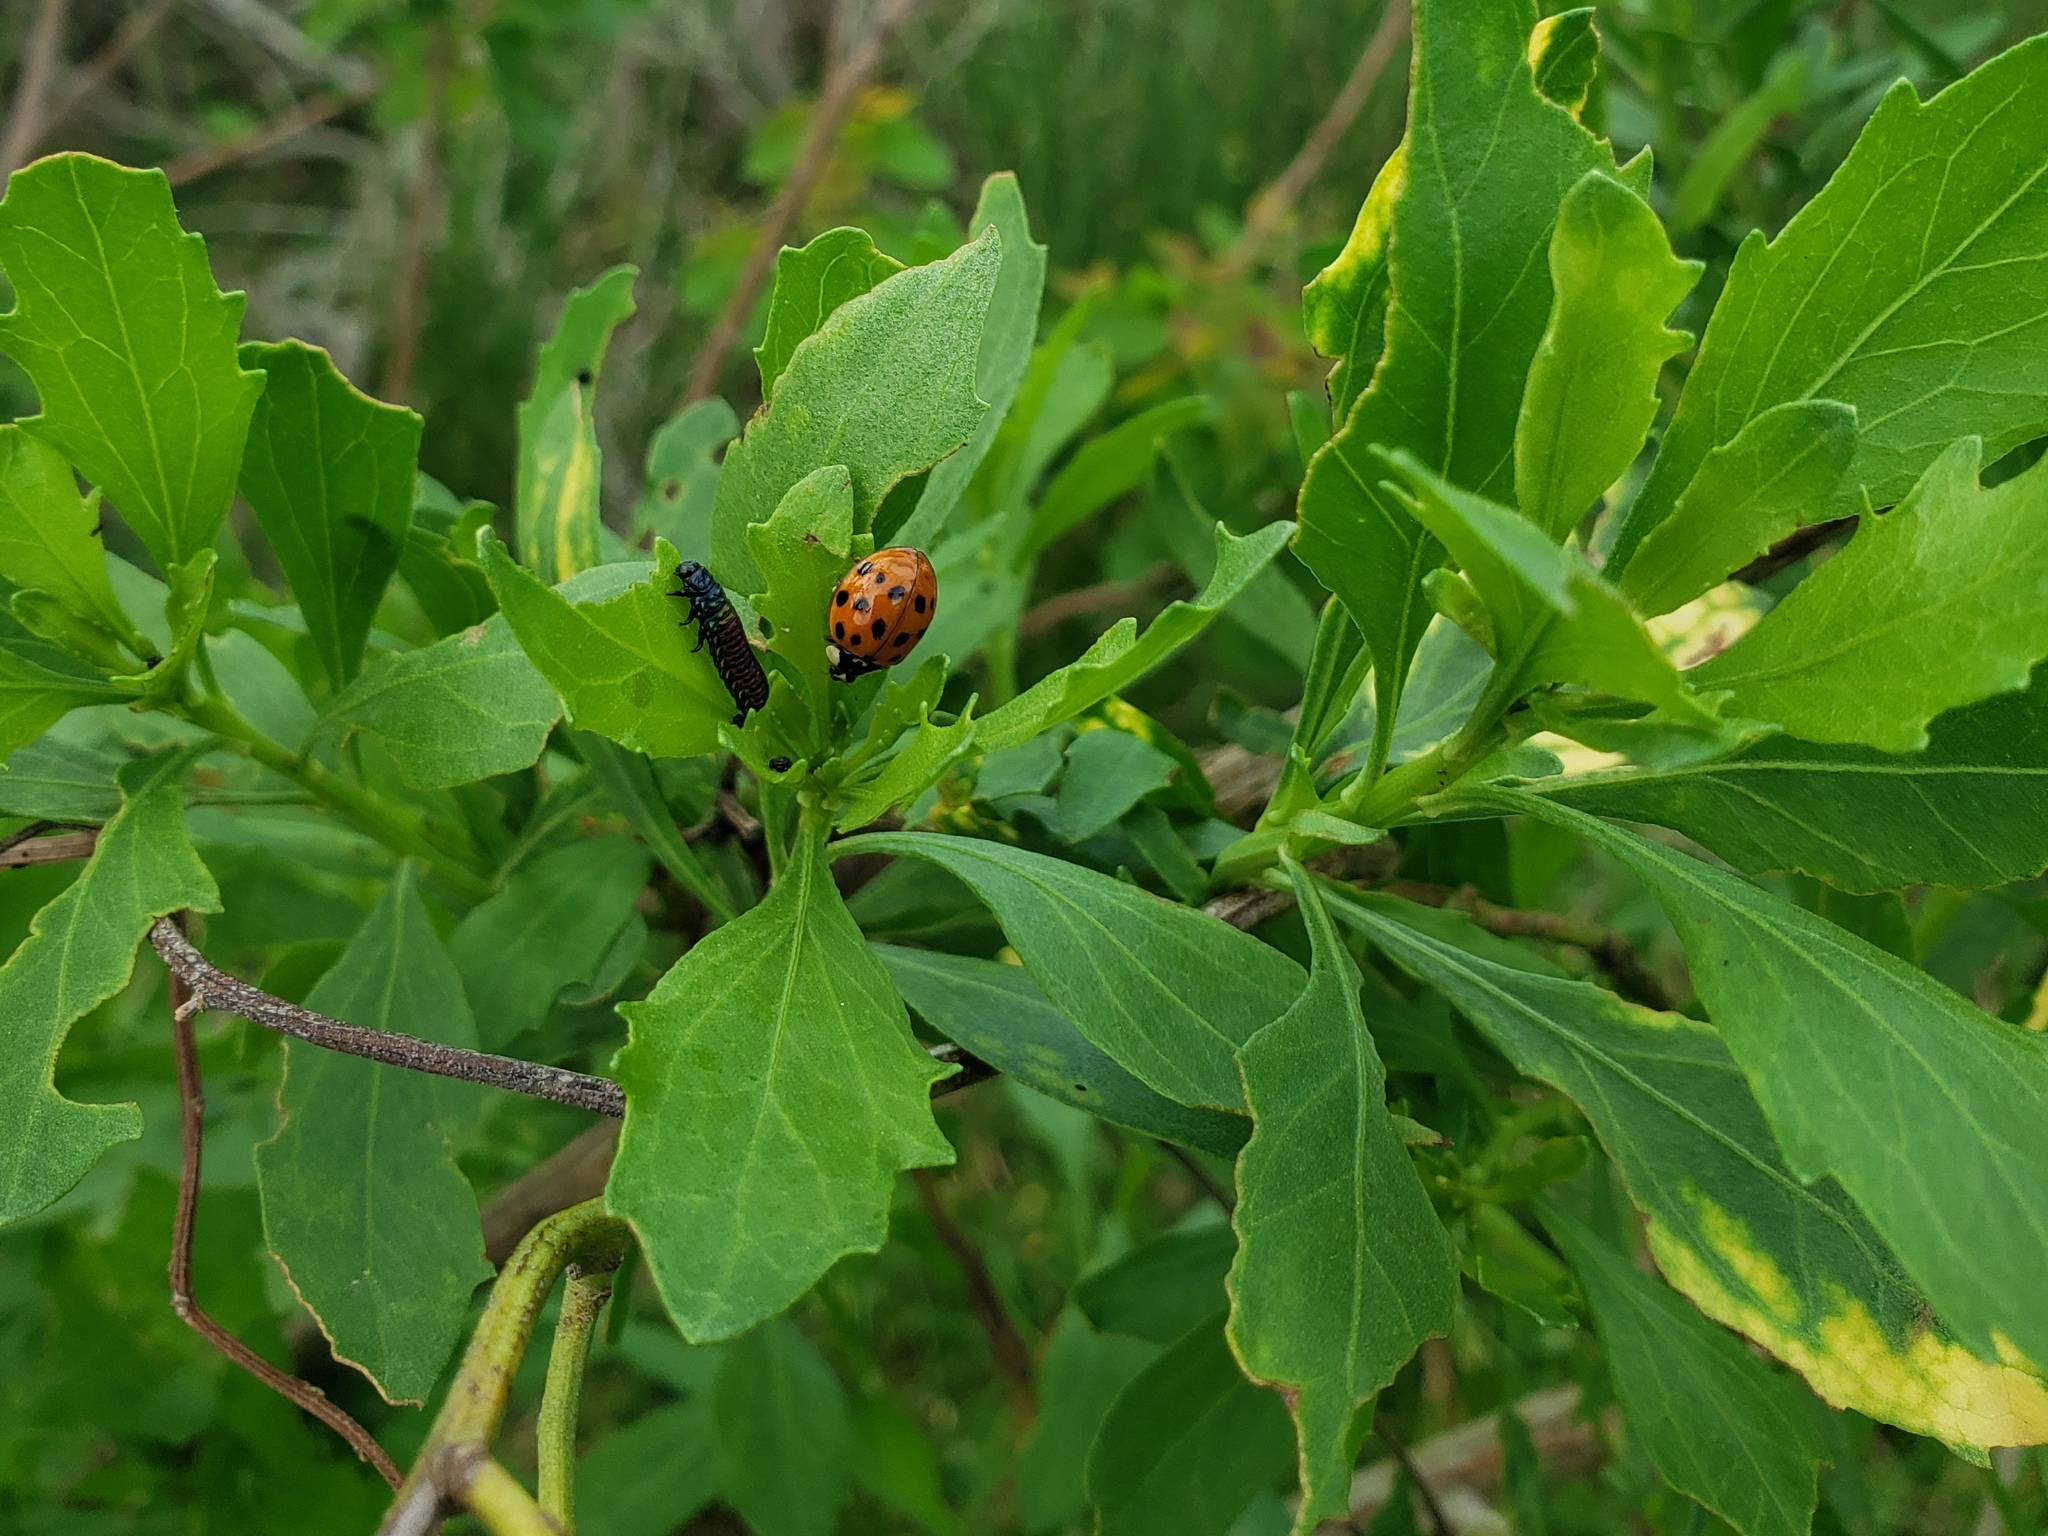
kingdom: Animalia
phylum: Arthropoda
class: Insecta
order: Coleoptera
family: Coccinellidae
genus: Harmonia
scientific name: Harmonia axyridis
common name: Harlequin ladybird
